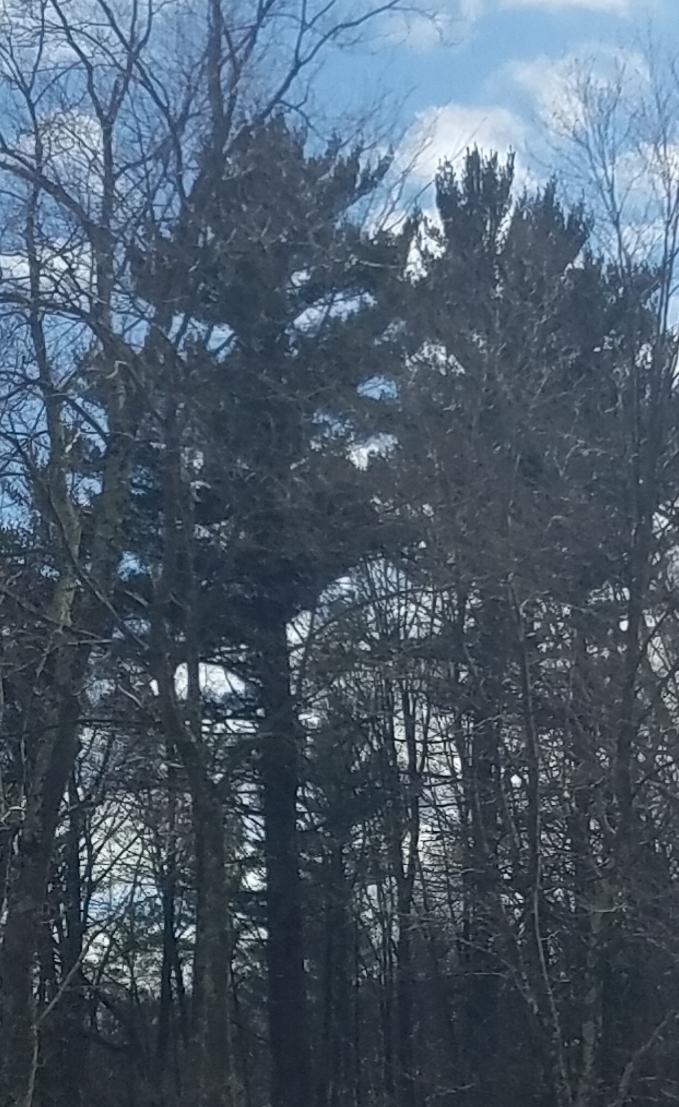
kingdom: Plantae
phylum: Tracheophyta
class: Pinopsida
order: Pinales
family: Pinaceae
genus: Pinus
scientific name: Pinus strobus
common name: Weymouth pine
